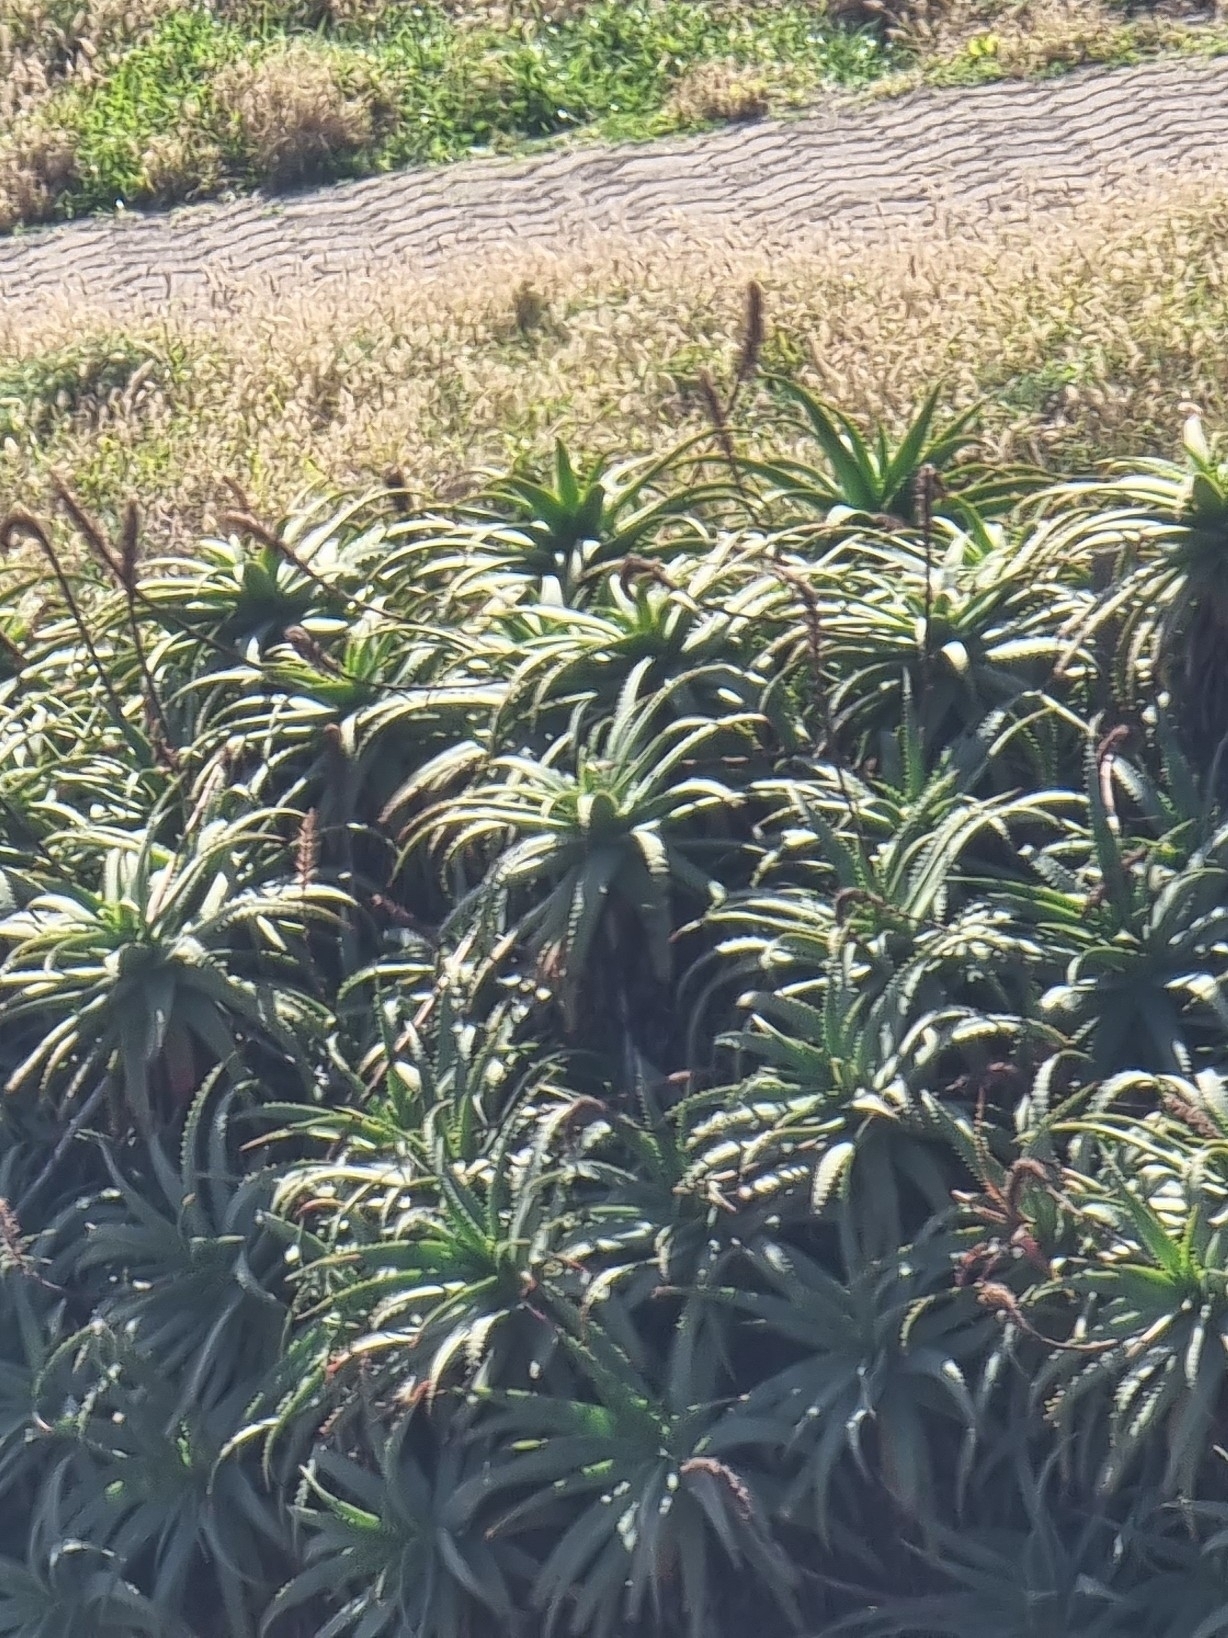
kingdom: Plantae
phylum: Tracheophyta
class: Liliopsida
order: Asparagales
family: Asphodelaceae
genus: Aloe
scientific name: Aloe arborescens
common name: Candelabra aloe
